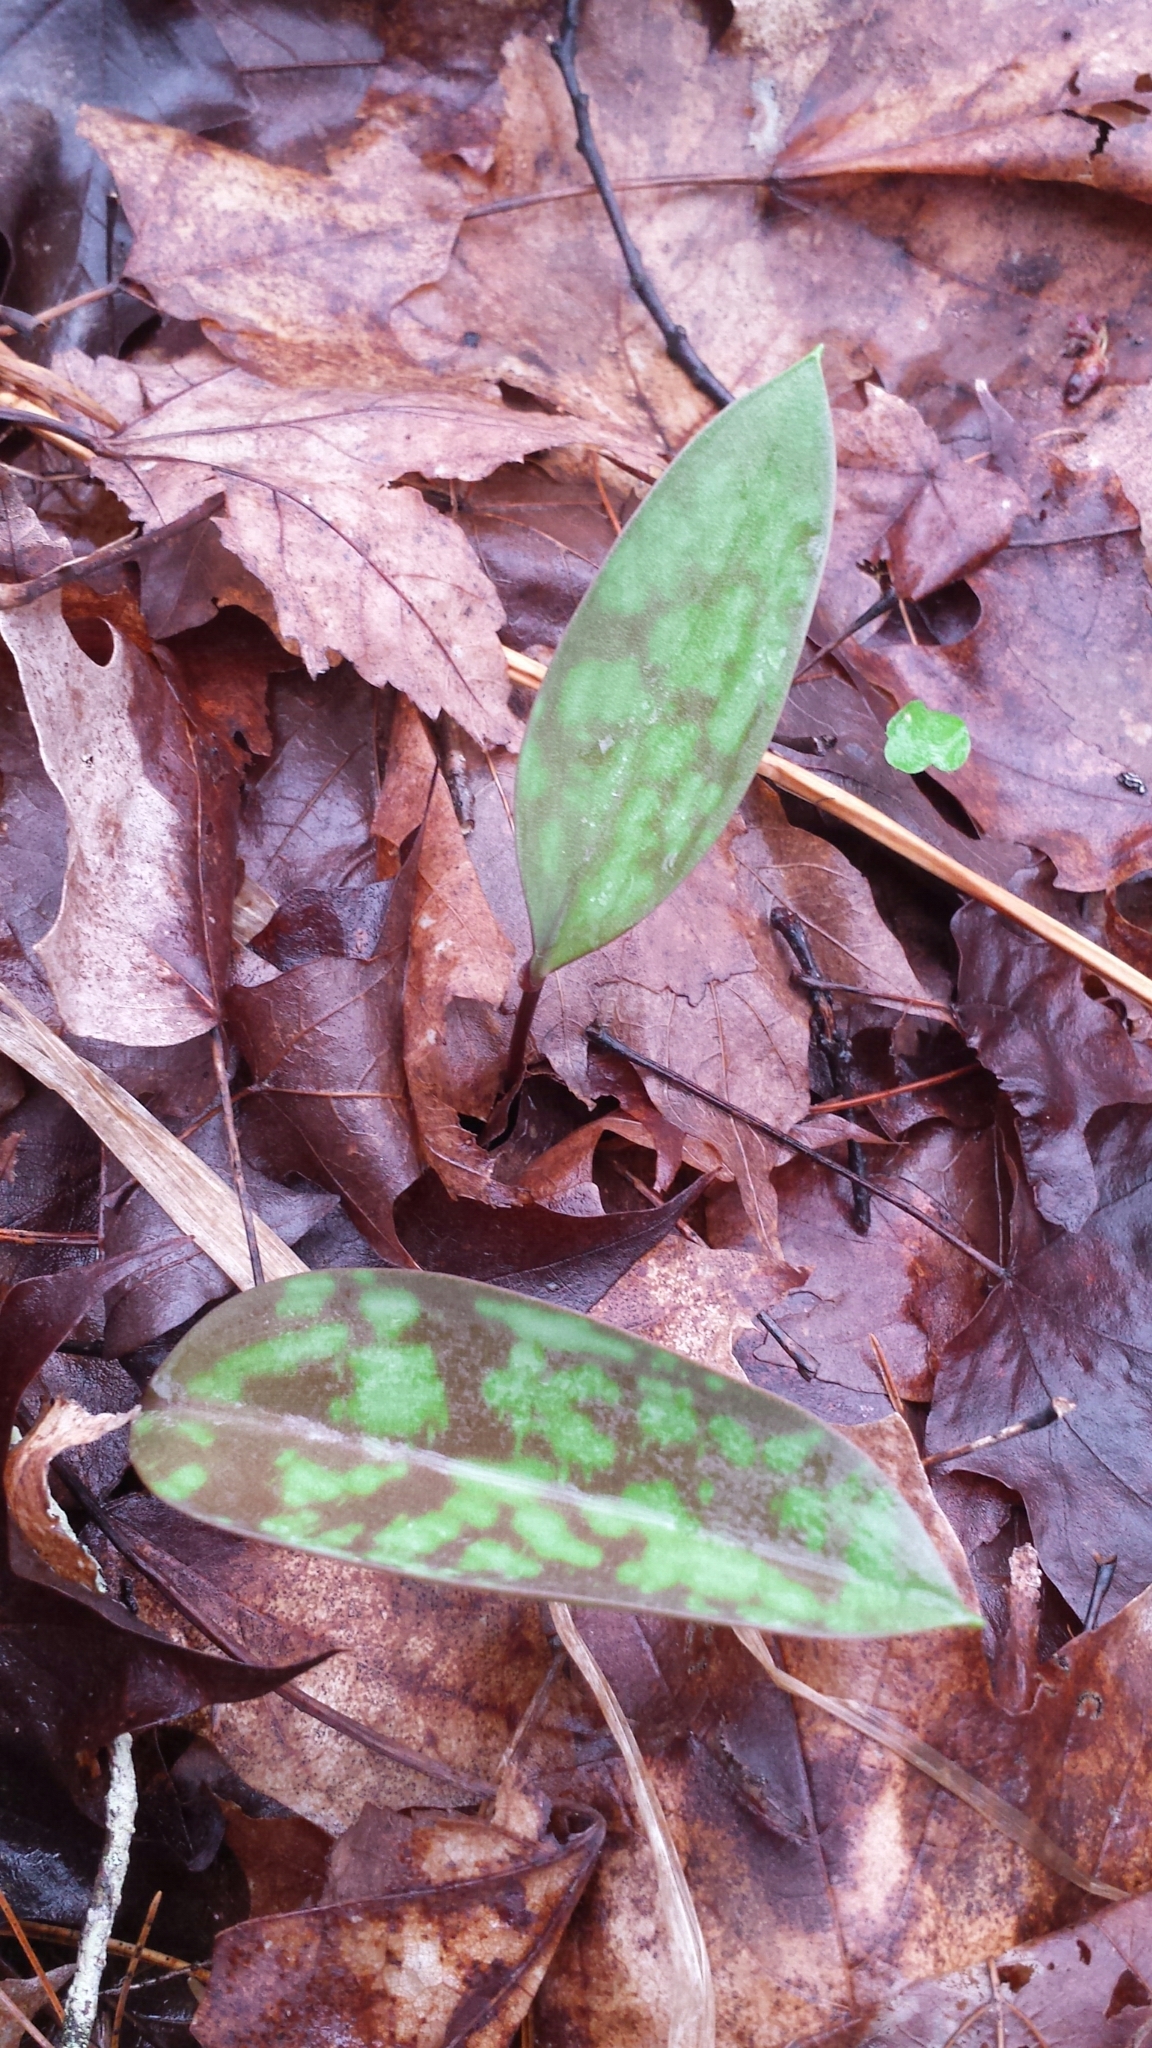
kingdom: Plantae
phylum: Tracheophyta
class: Liliopsida
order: Liliales
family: Liliaceae
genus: Erythronium
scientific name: Erythronium americanum
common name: Yellow adder's-tongue
